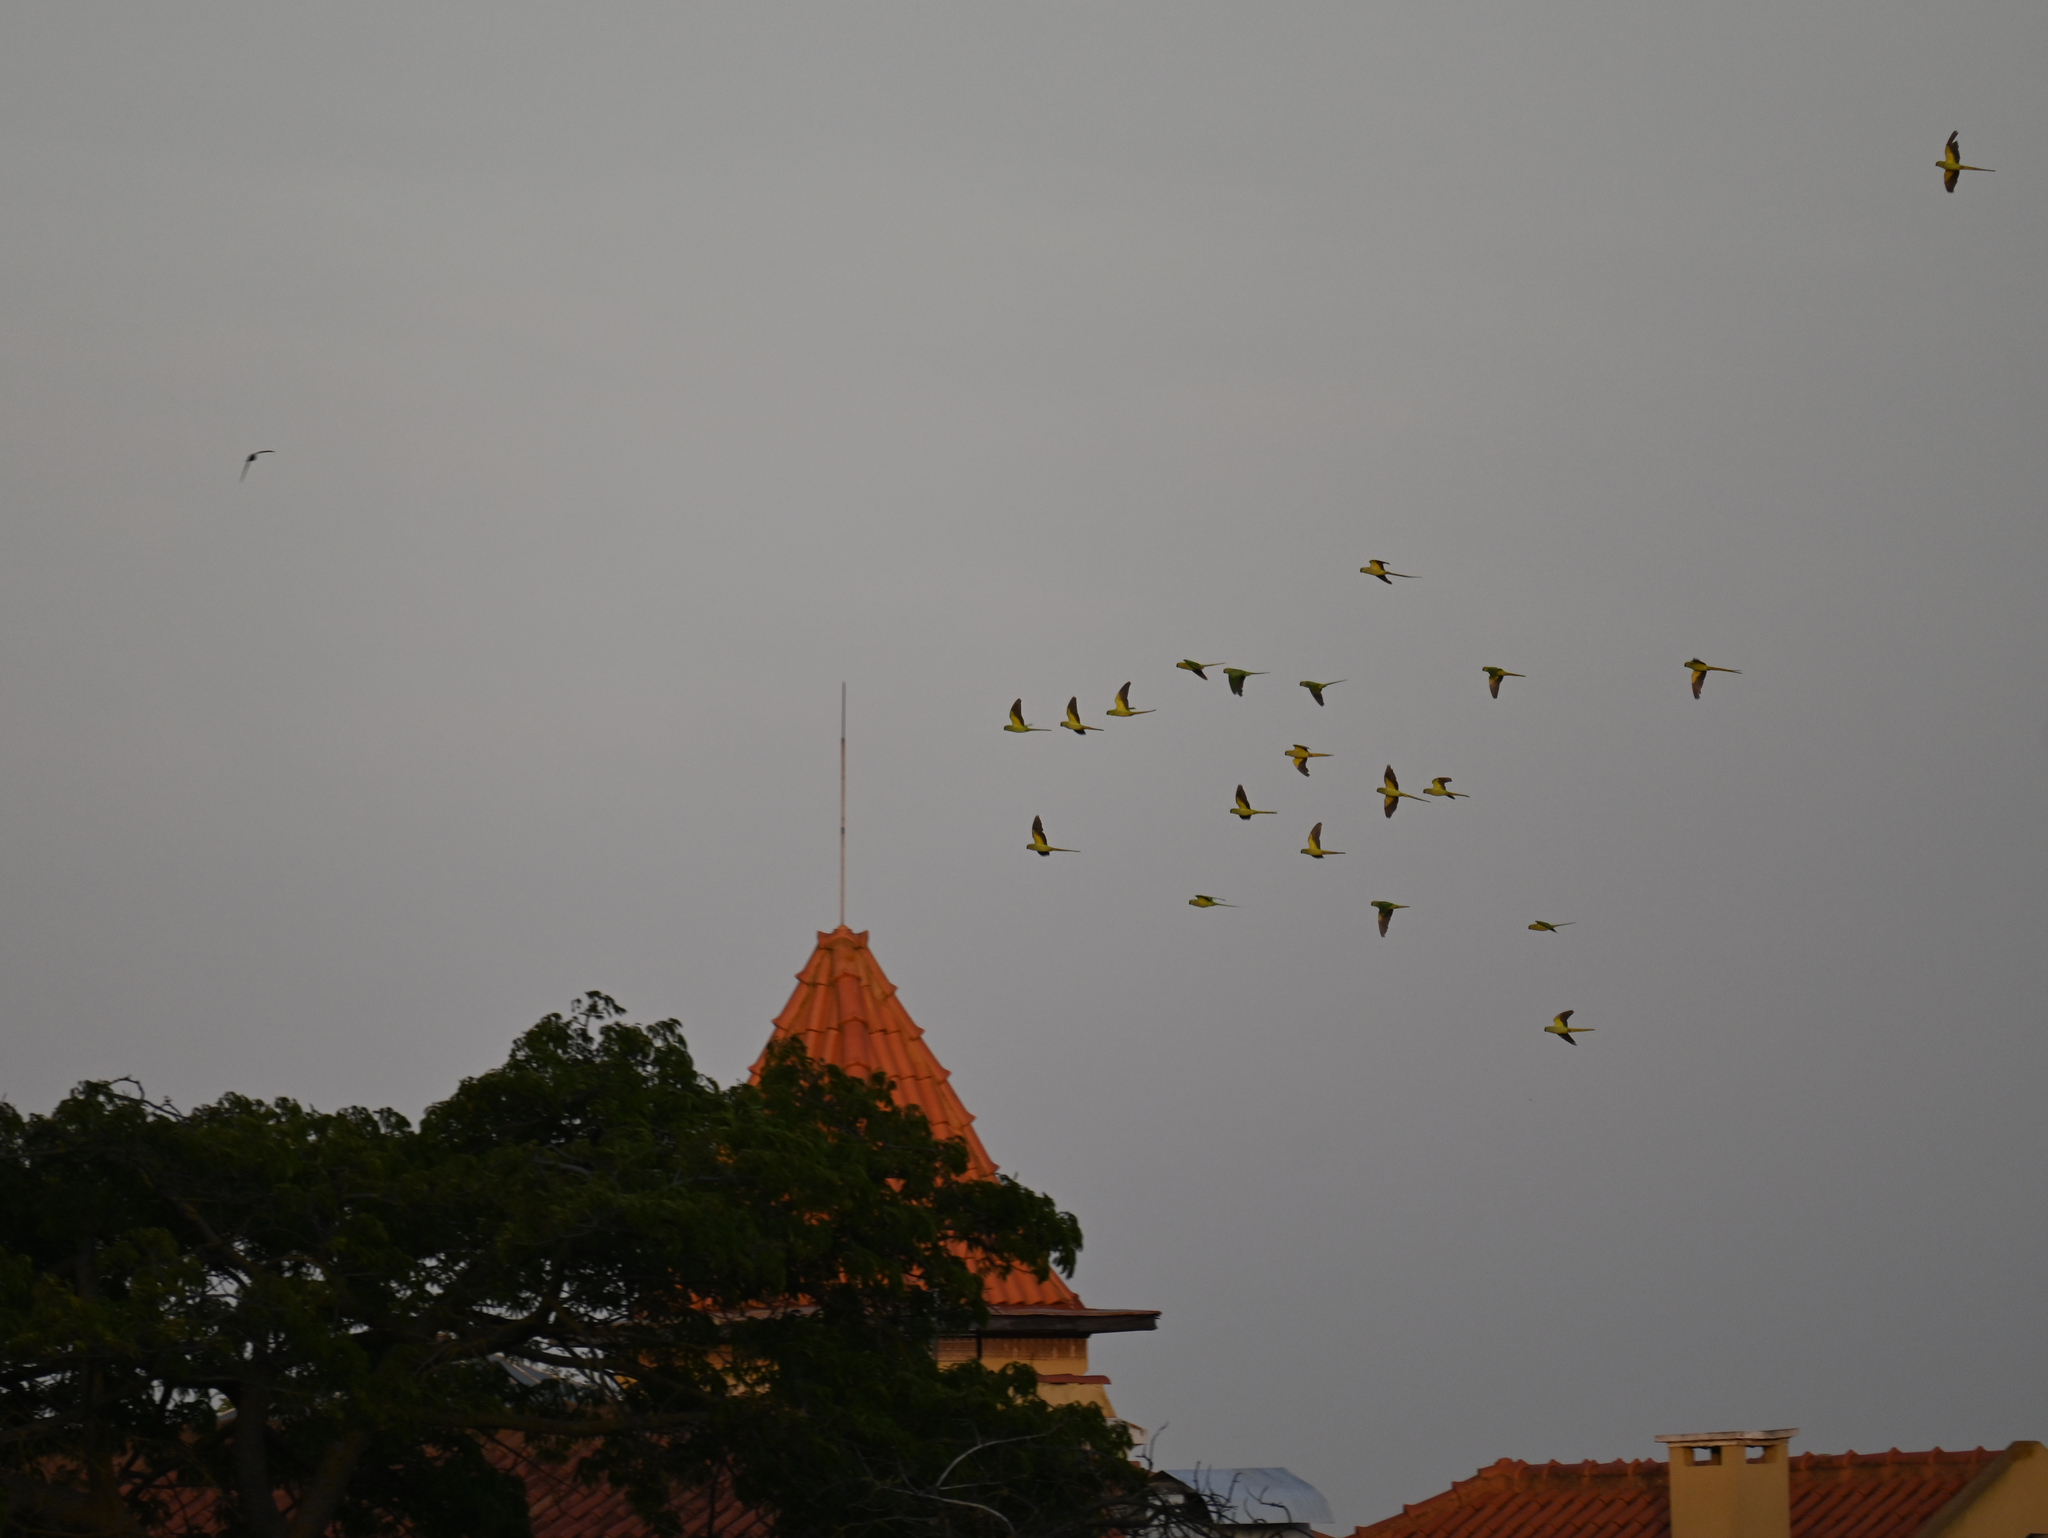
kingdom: Animalia
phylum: Chordata
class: Aves
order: Psittaciformes
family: Psittacidae
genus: Psittacula
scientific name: Psittacula krameri
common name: Rose-ringed parakeet
